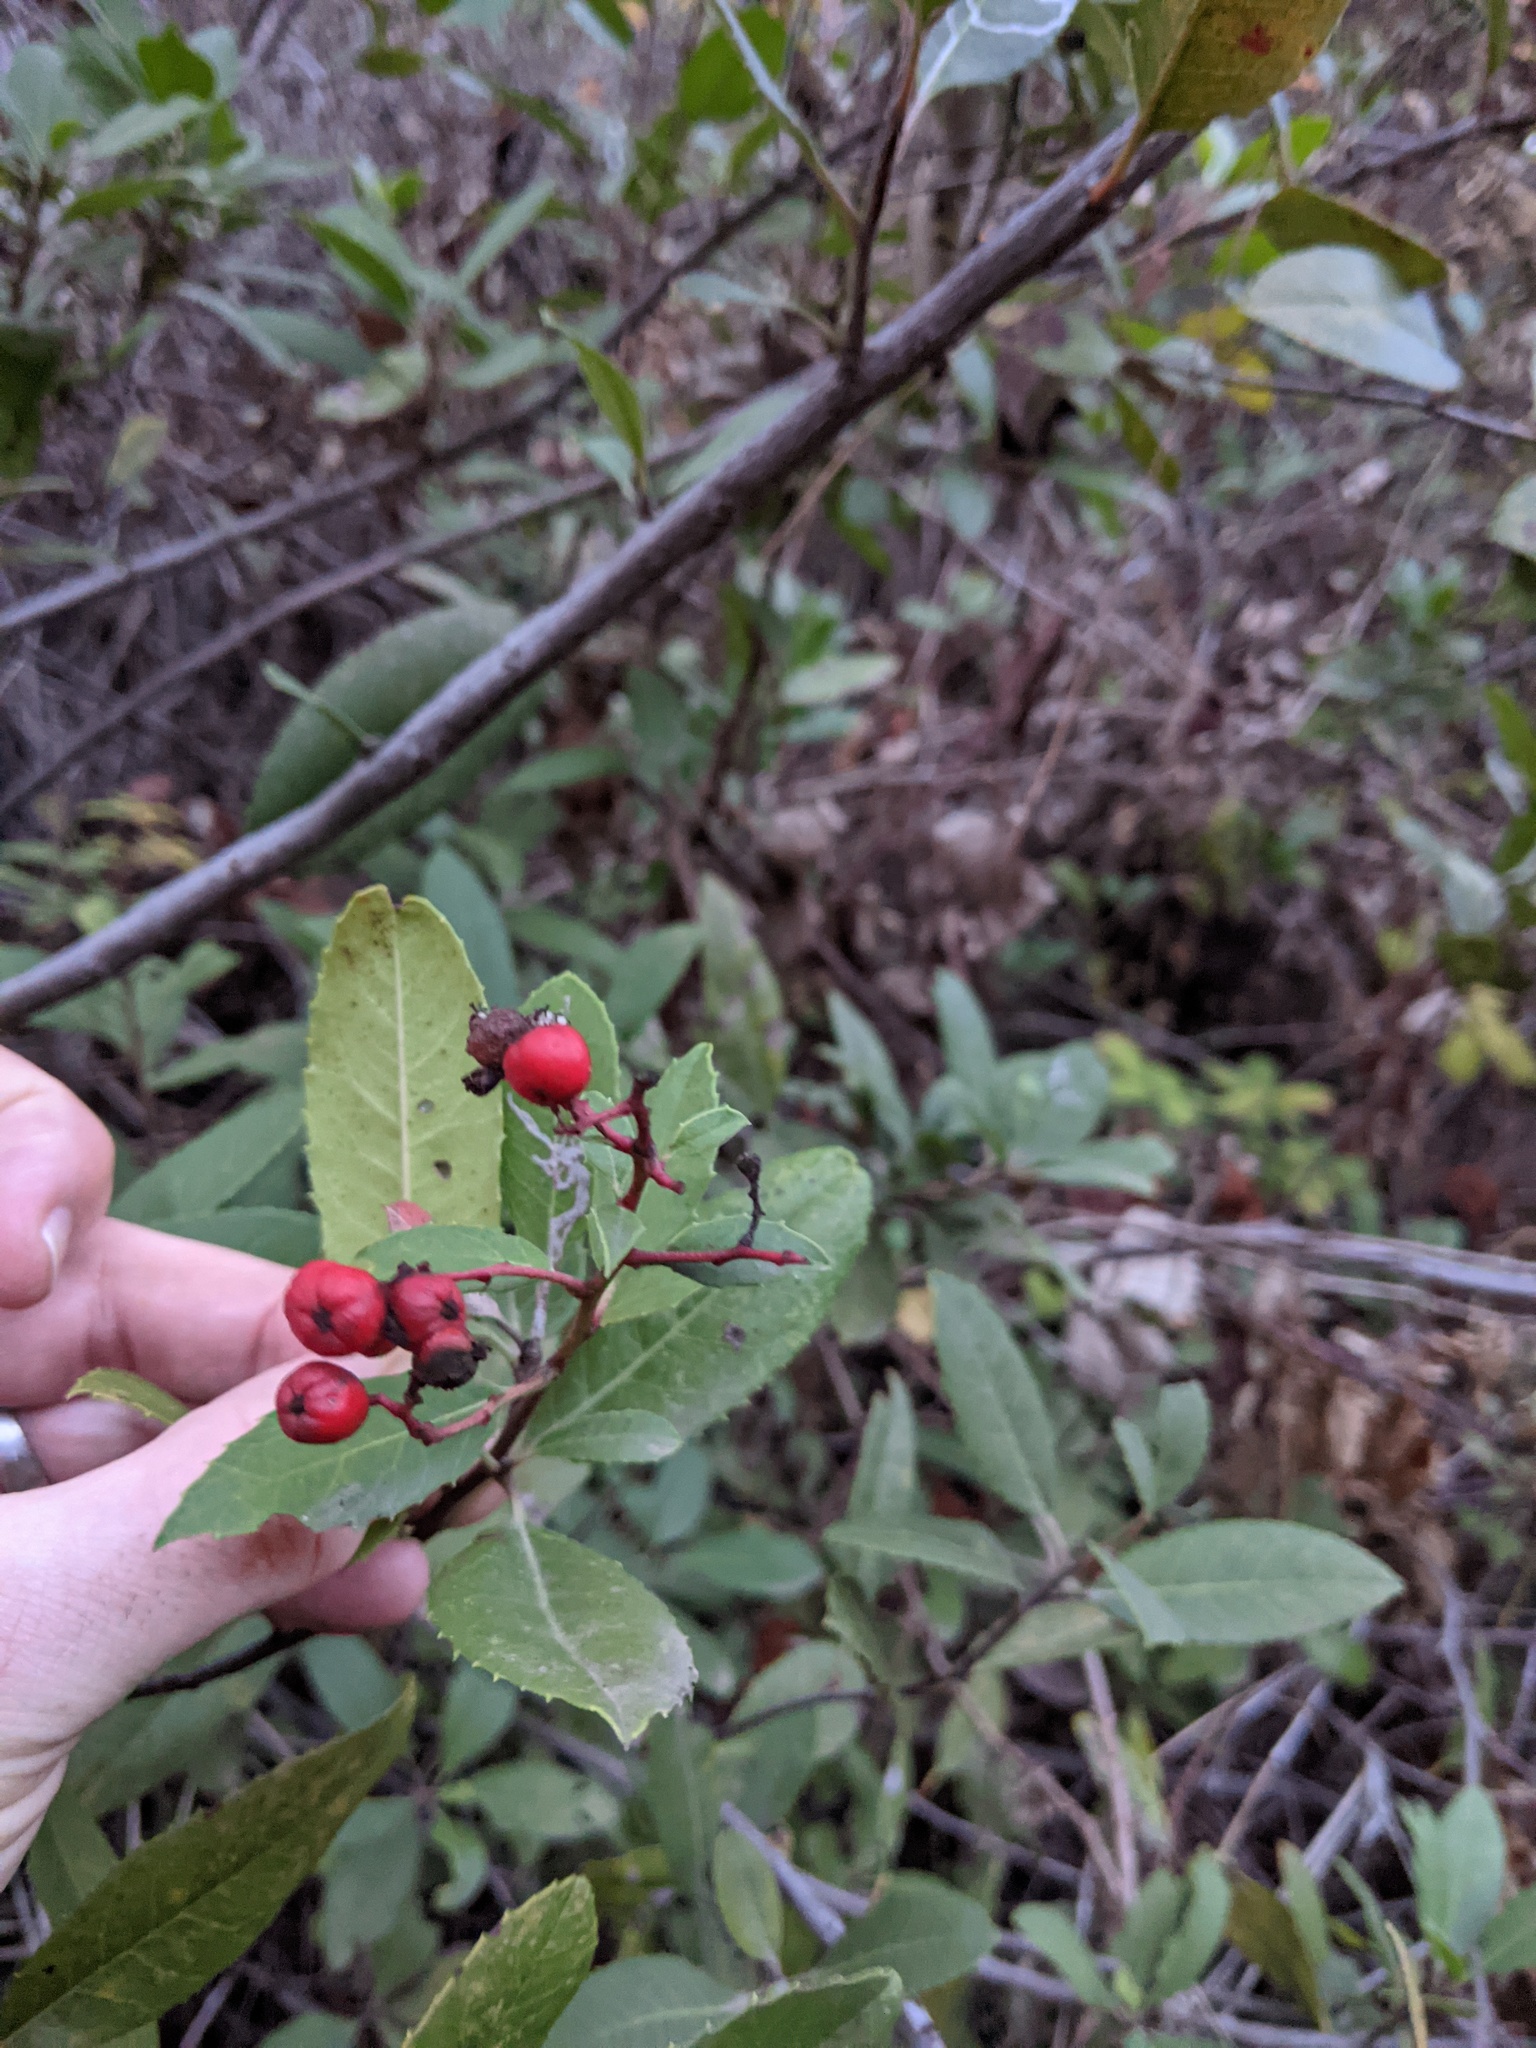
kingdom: Plantae
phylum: Tracheophyta
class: Magnoliopsida
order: Rosales
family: Rosaceae
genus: Heteromeles
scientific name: Heteromeles arbutifolia
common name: California-holly
